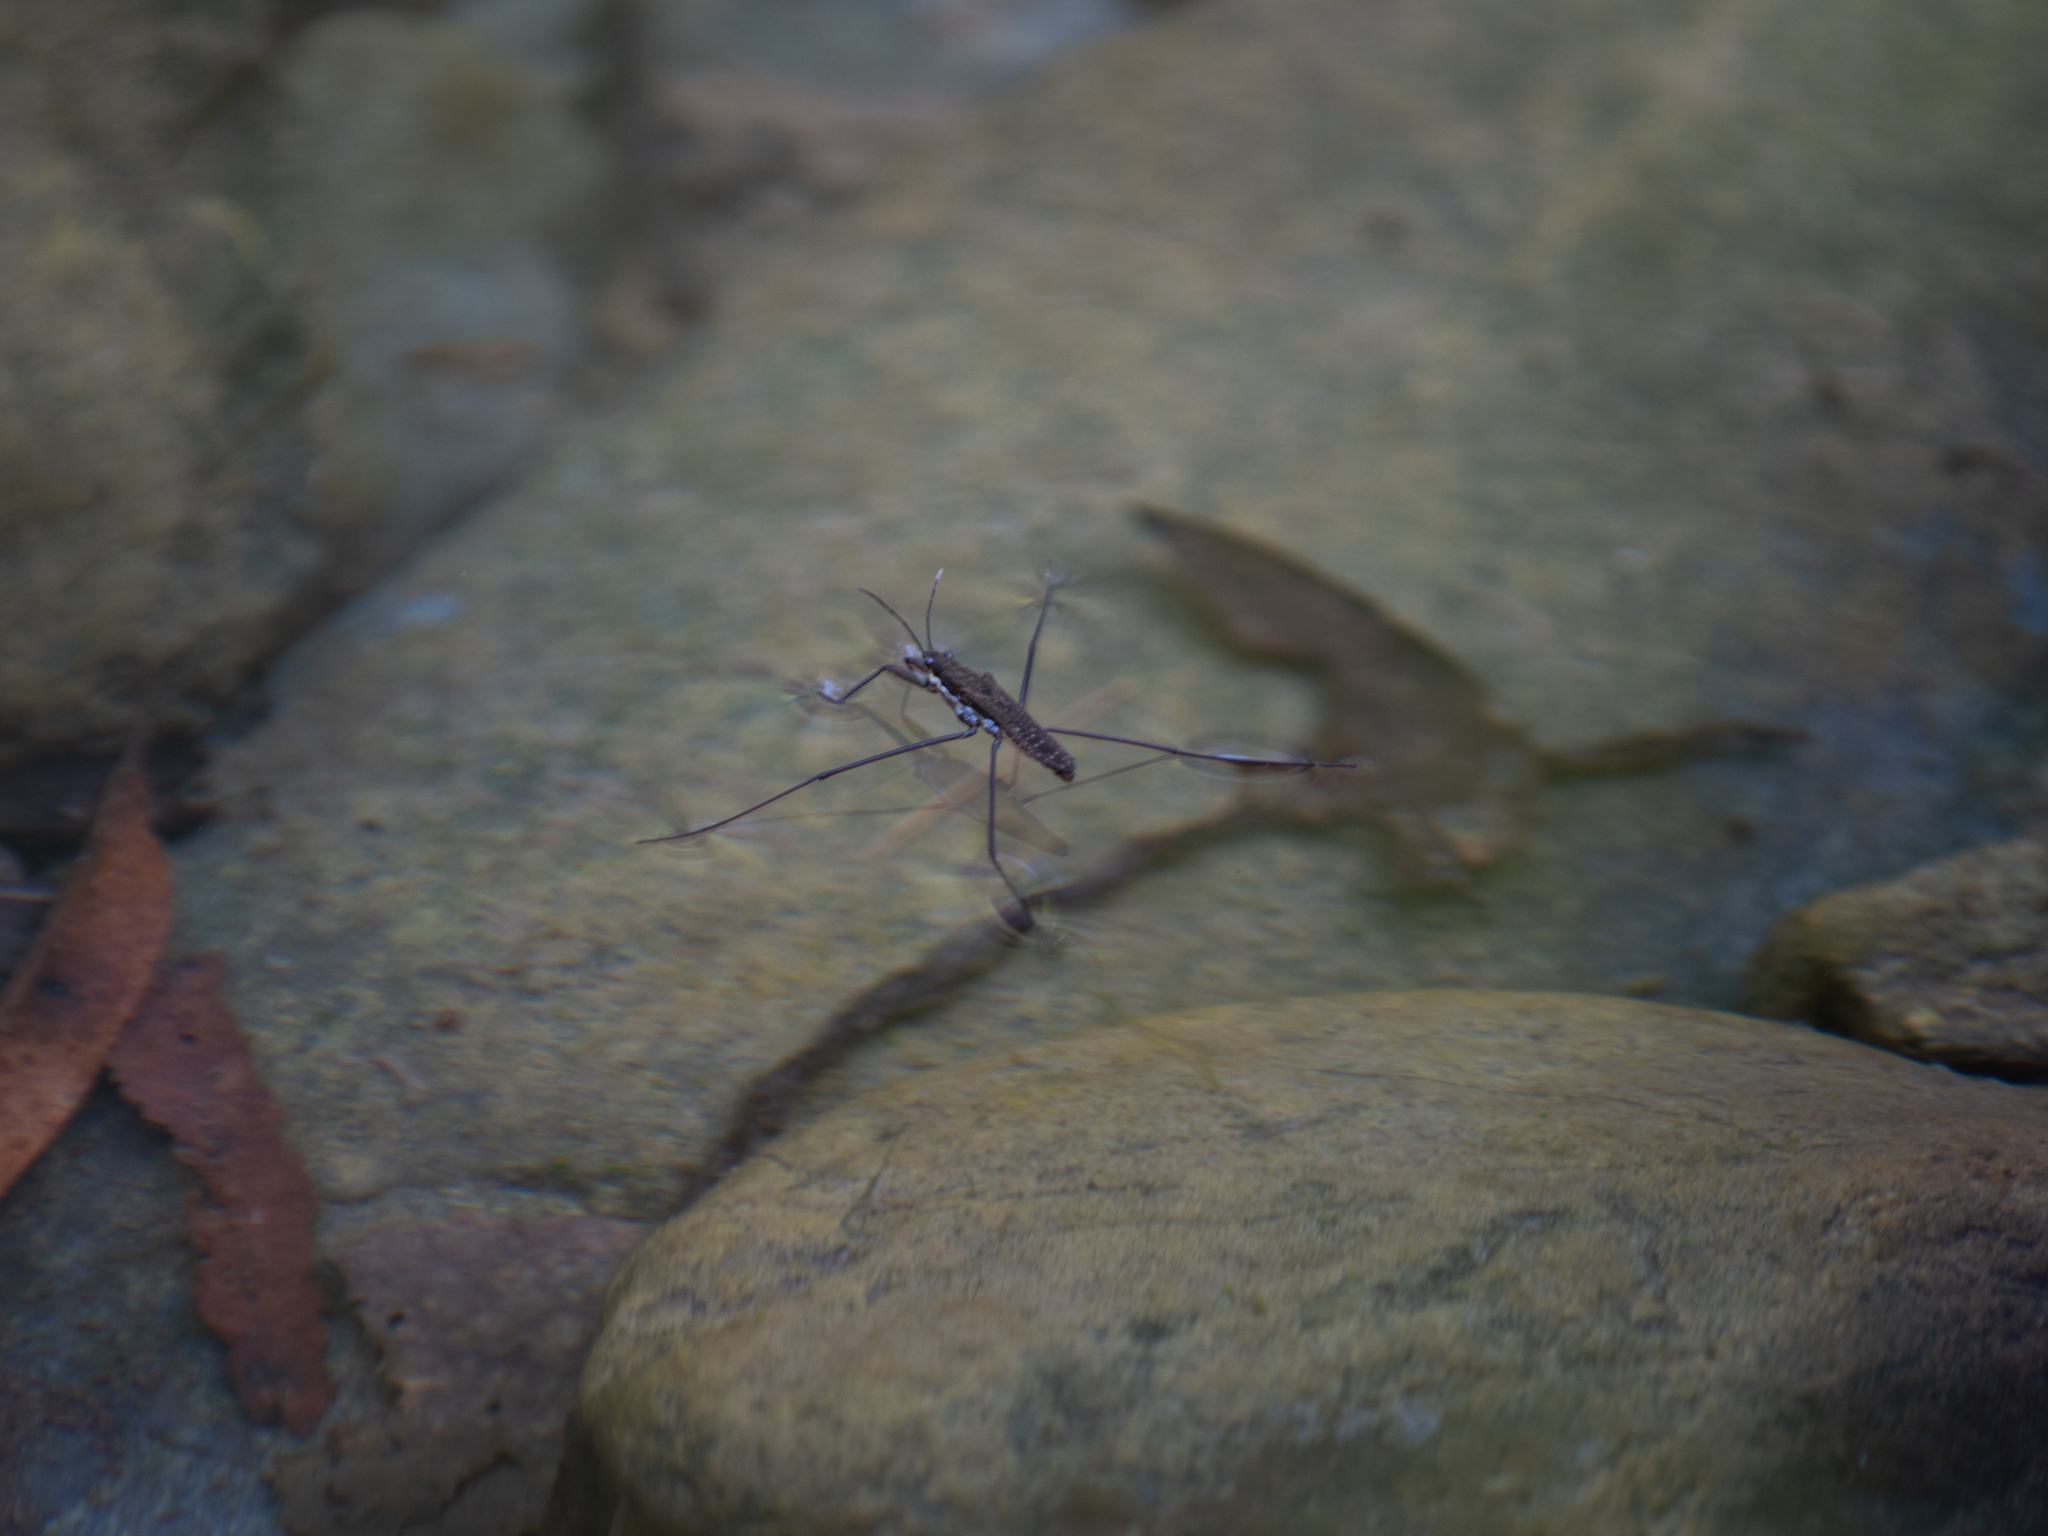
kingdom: Animalia
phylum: Arthropoda
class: Insecta
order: Hemiptera
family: Gerridae
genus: Aquarius
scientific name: Aquarius remigis
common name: Common water strider
